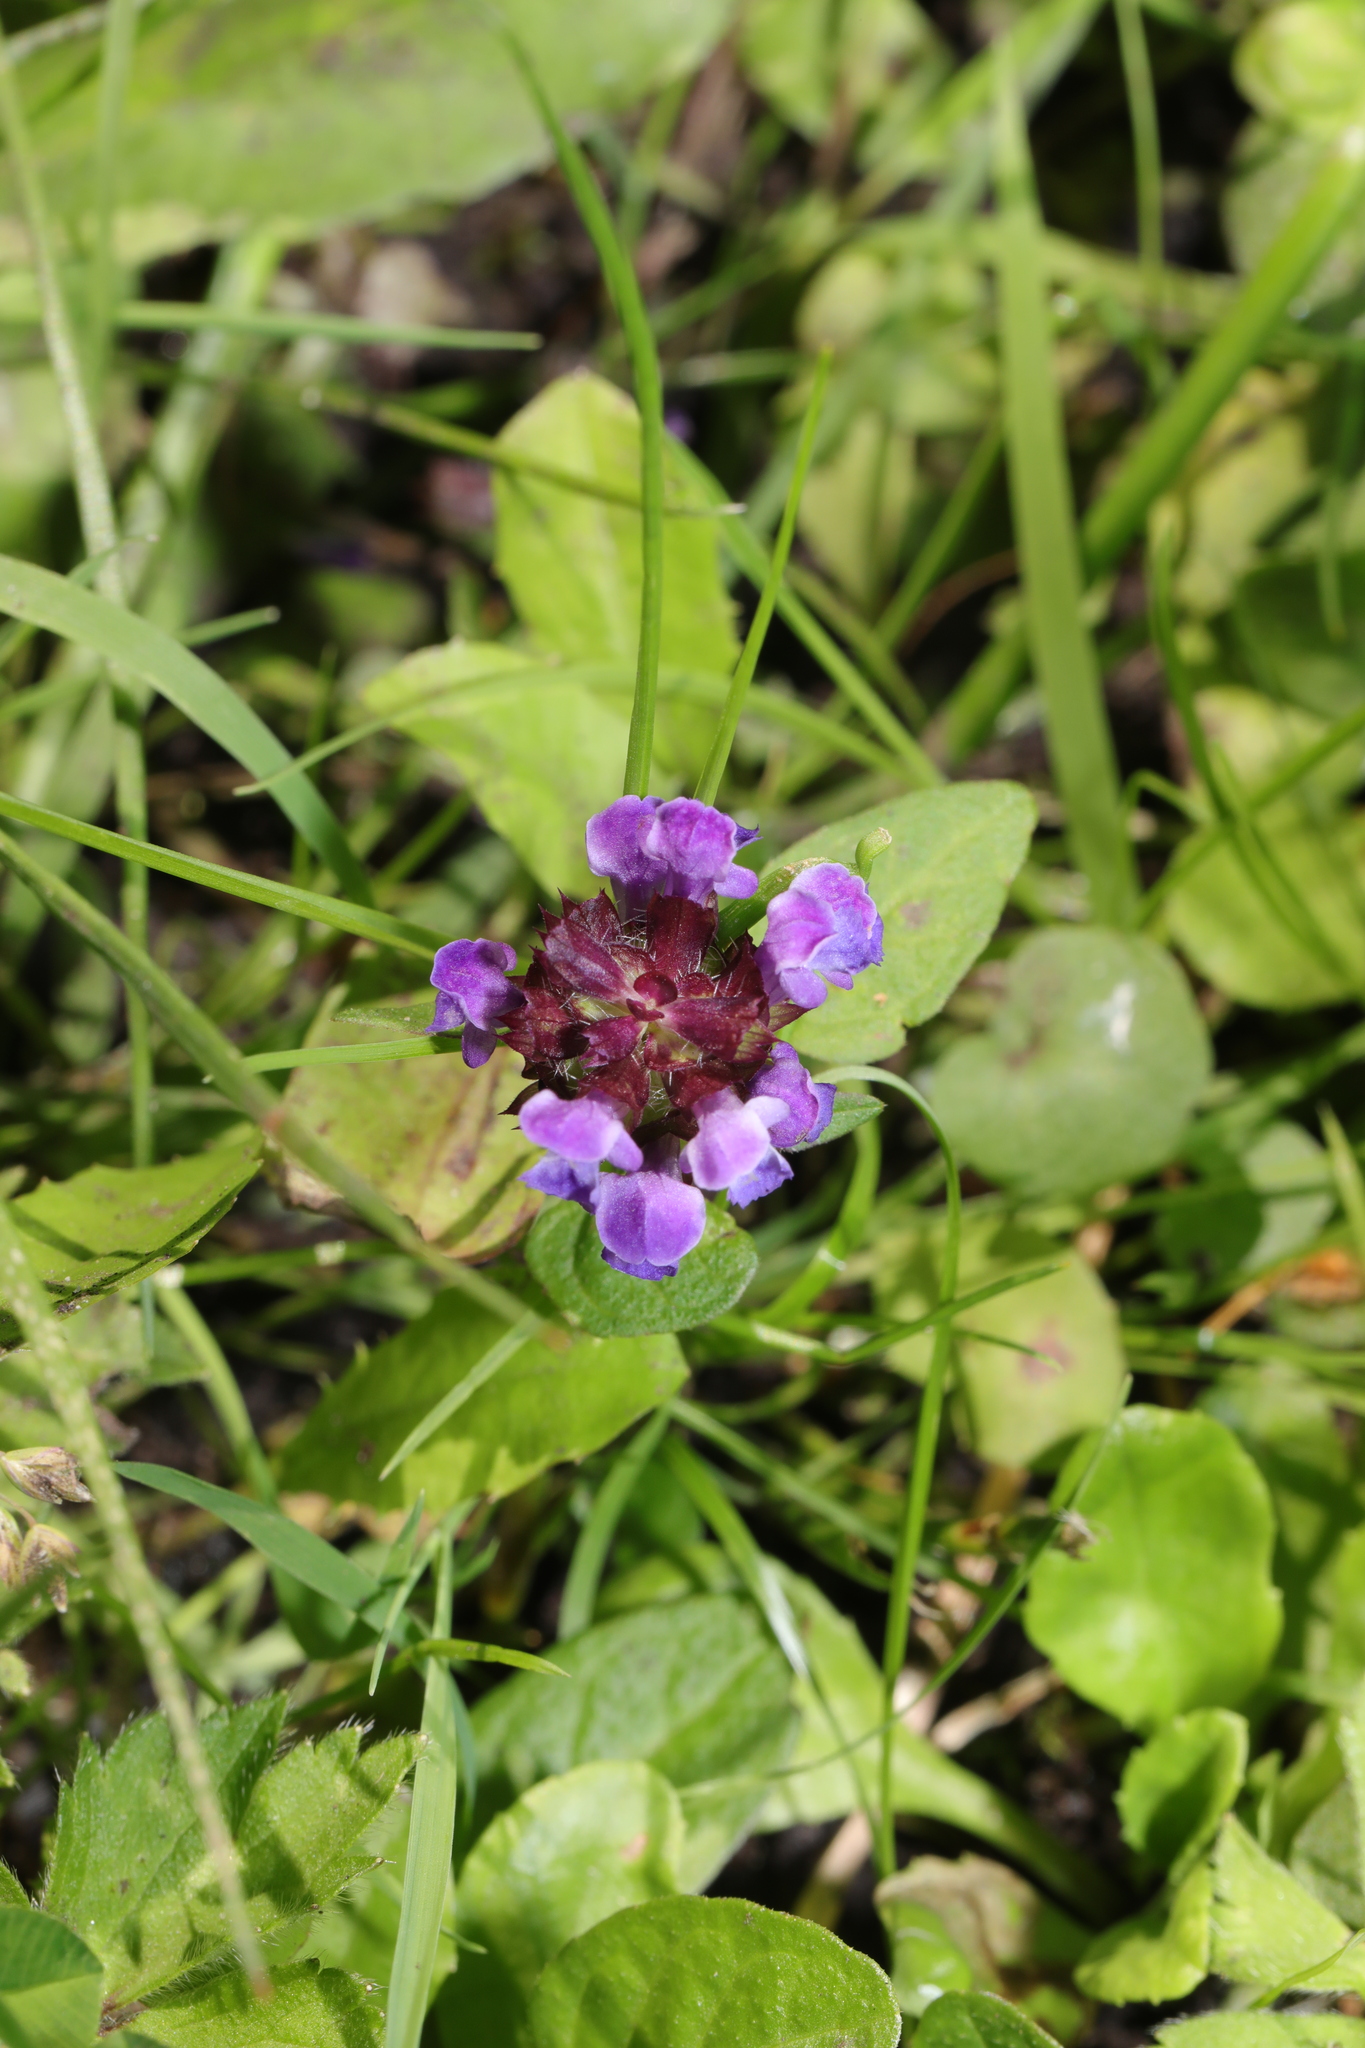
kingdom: Plantae
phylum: Tracheophyta
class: Magnoliopsida
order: Lamiales
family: Lamiaceae
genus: Prunella
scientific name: Prunella vulgaris
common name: Heal-all
